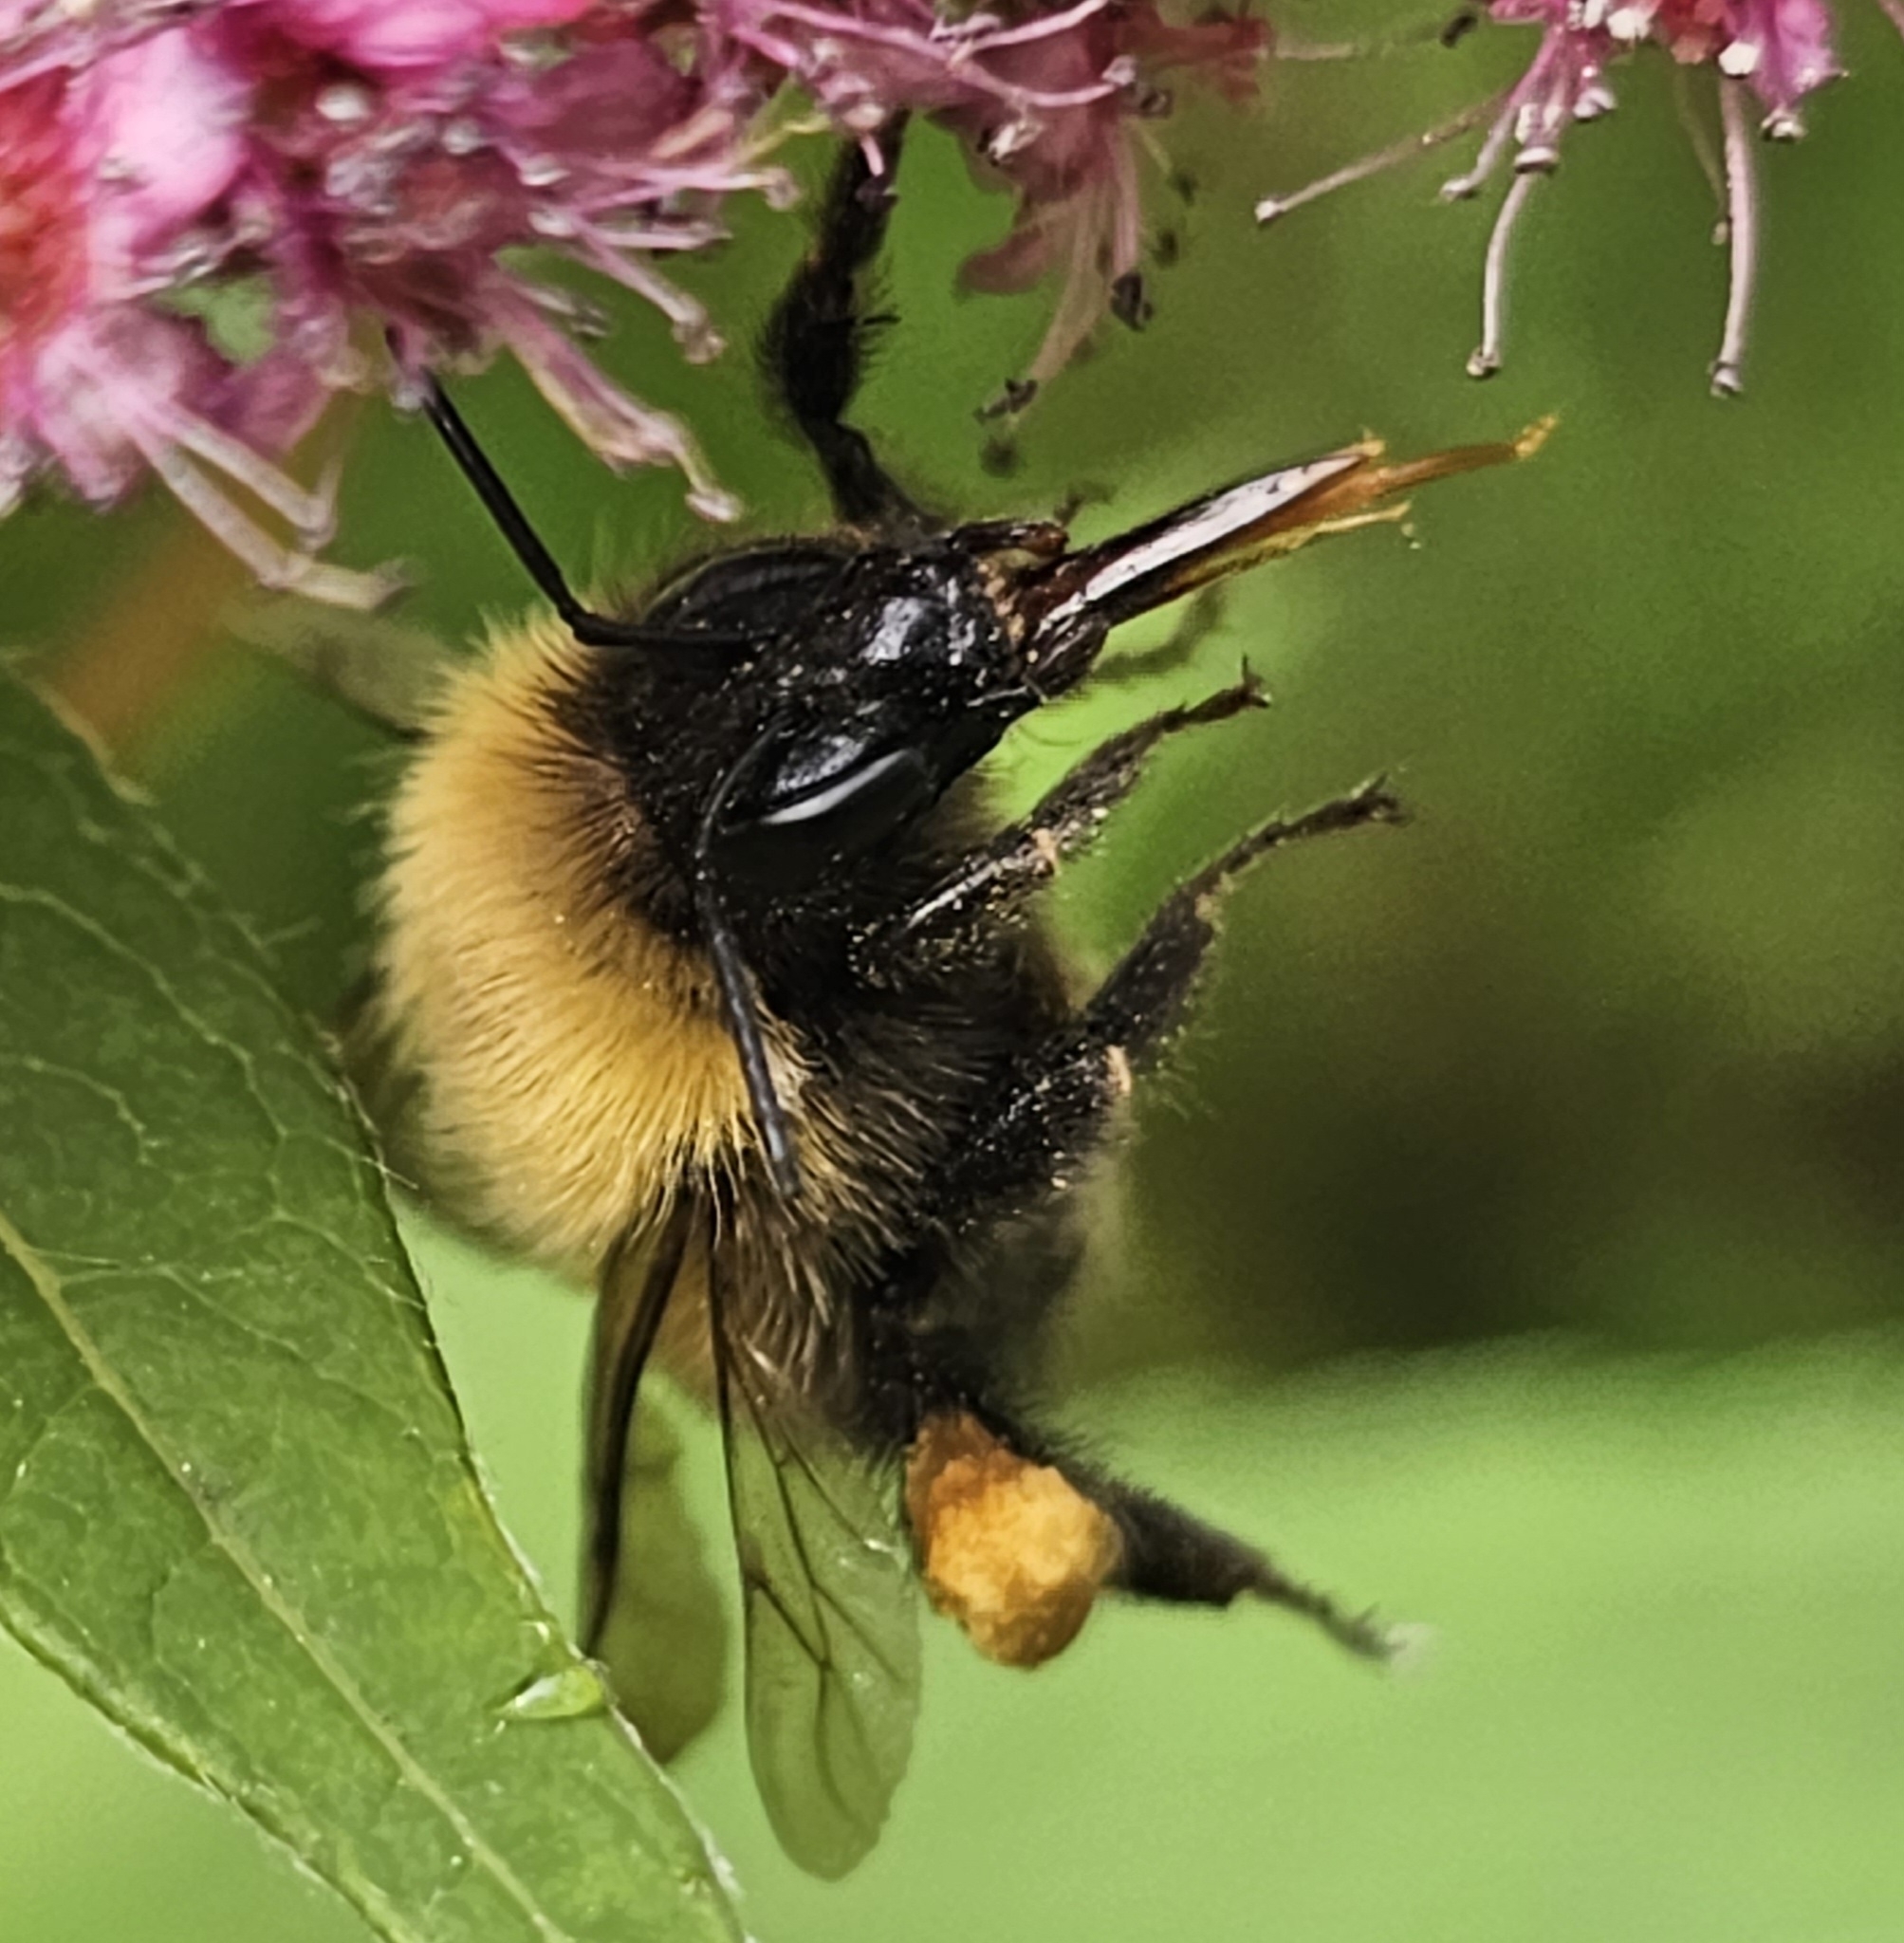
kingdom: Animalia
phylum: Arthropoda
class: Insecta
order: Hymenoptera
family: Apidae
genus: Bombus
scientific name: Bombus perplexus
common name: Confusing bumble bee
